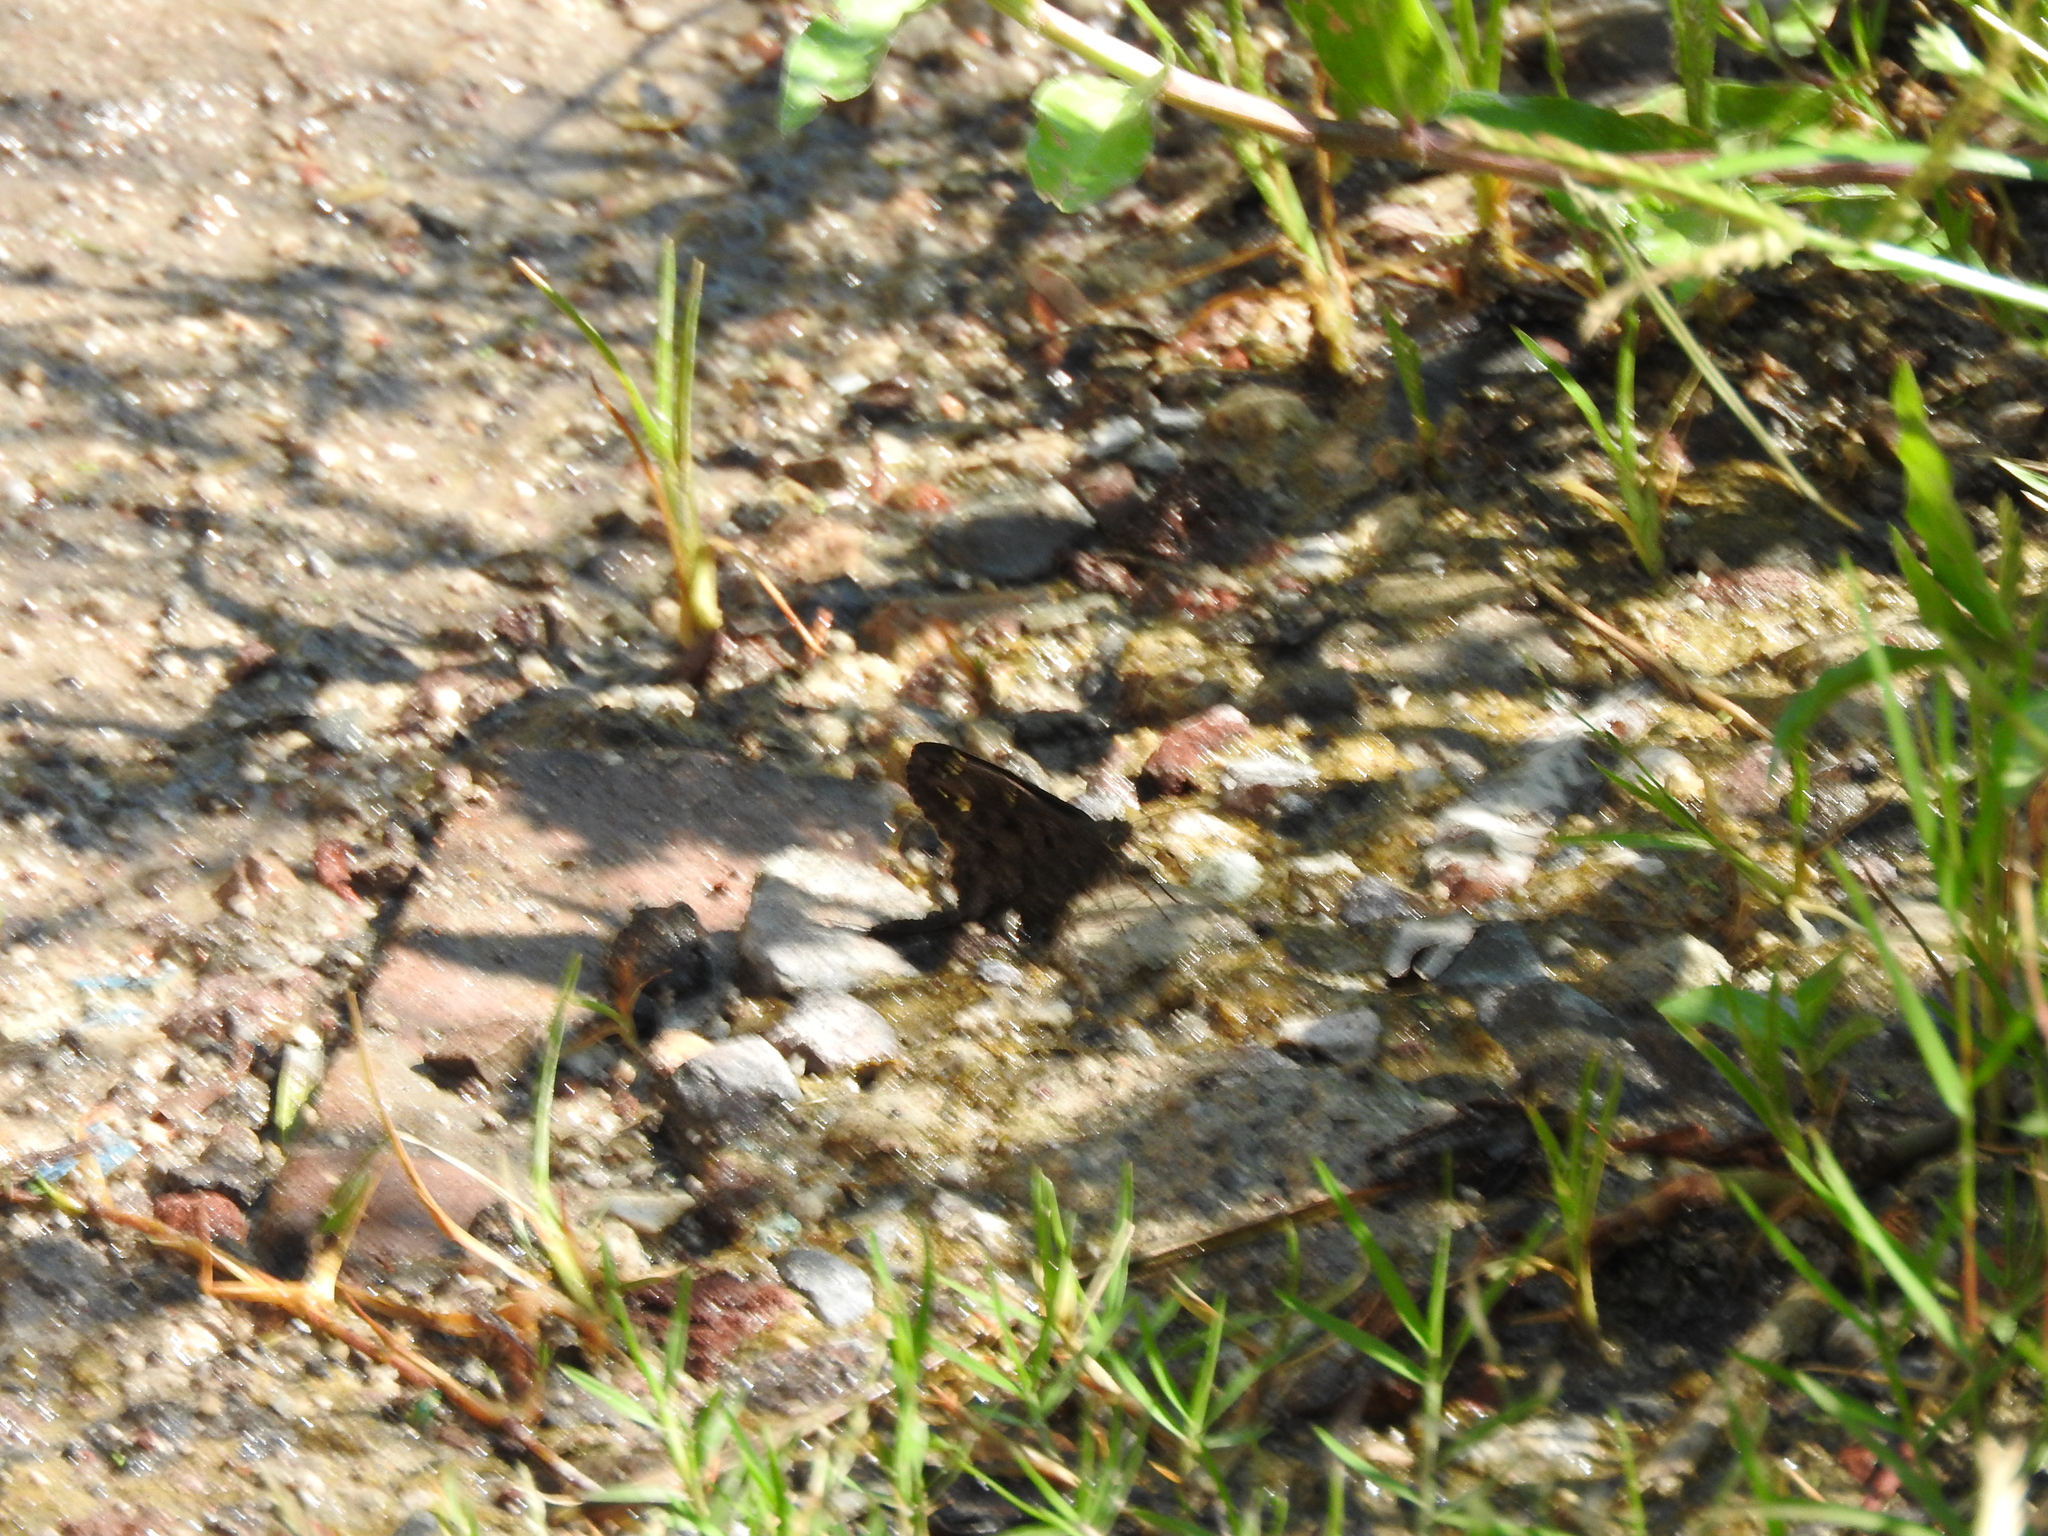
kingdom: Animalia
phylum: Arthropoda
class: Insecta
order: Lepidoptera
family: Hesperiidae
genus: Thorybes
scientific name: Thorybes
